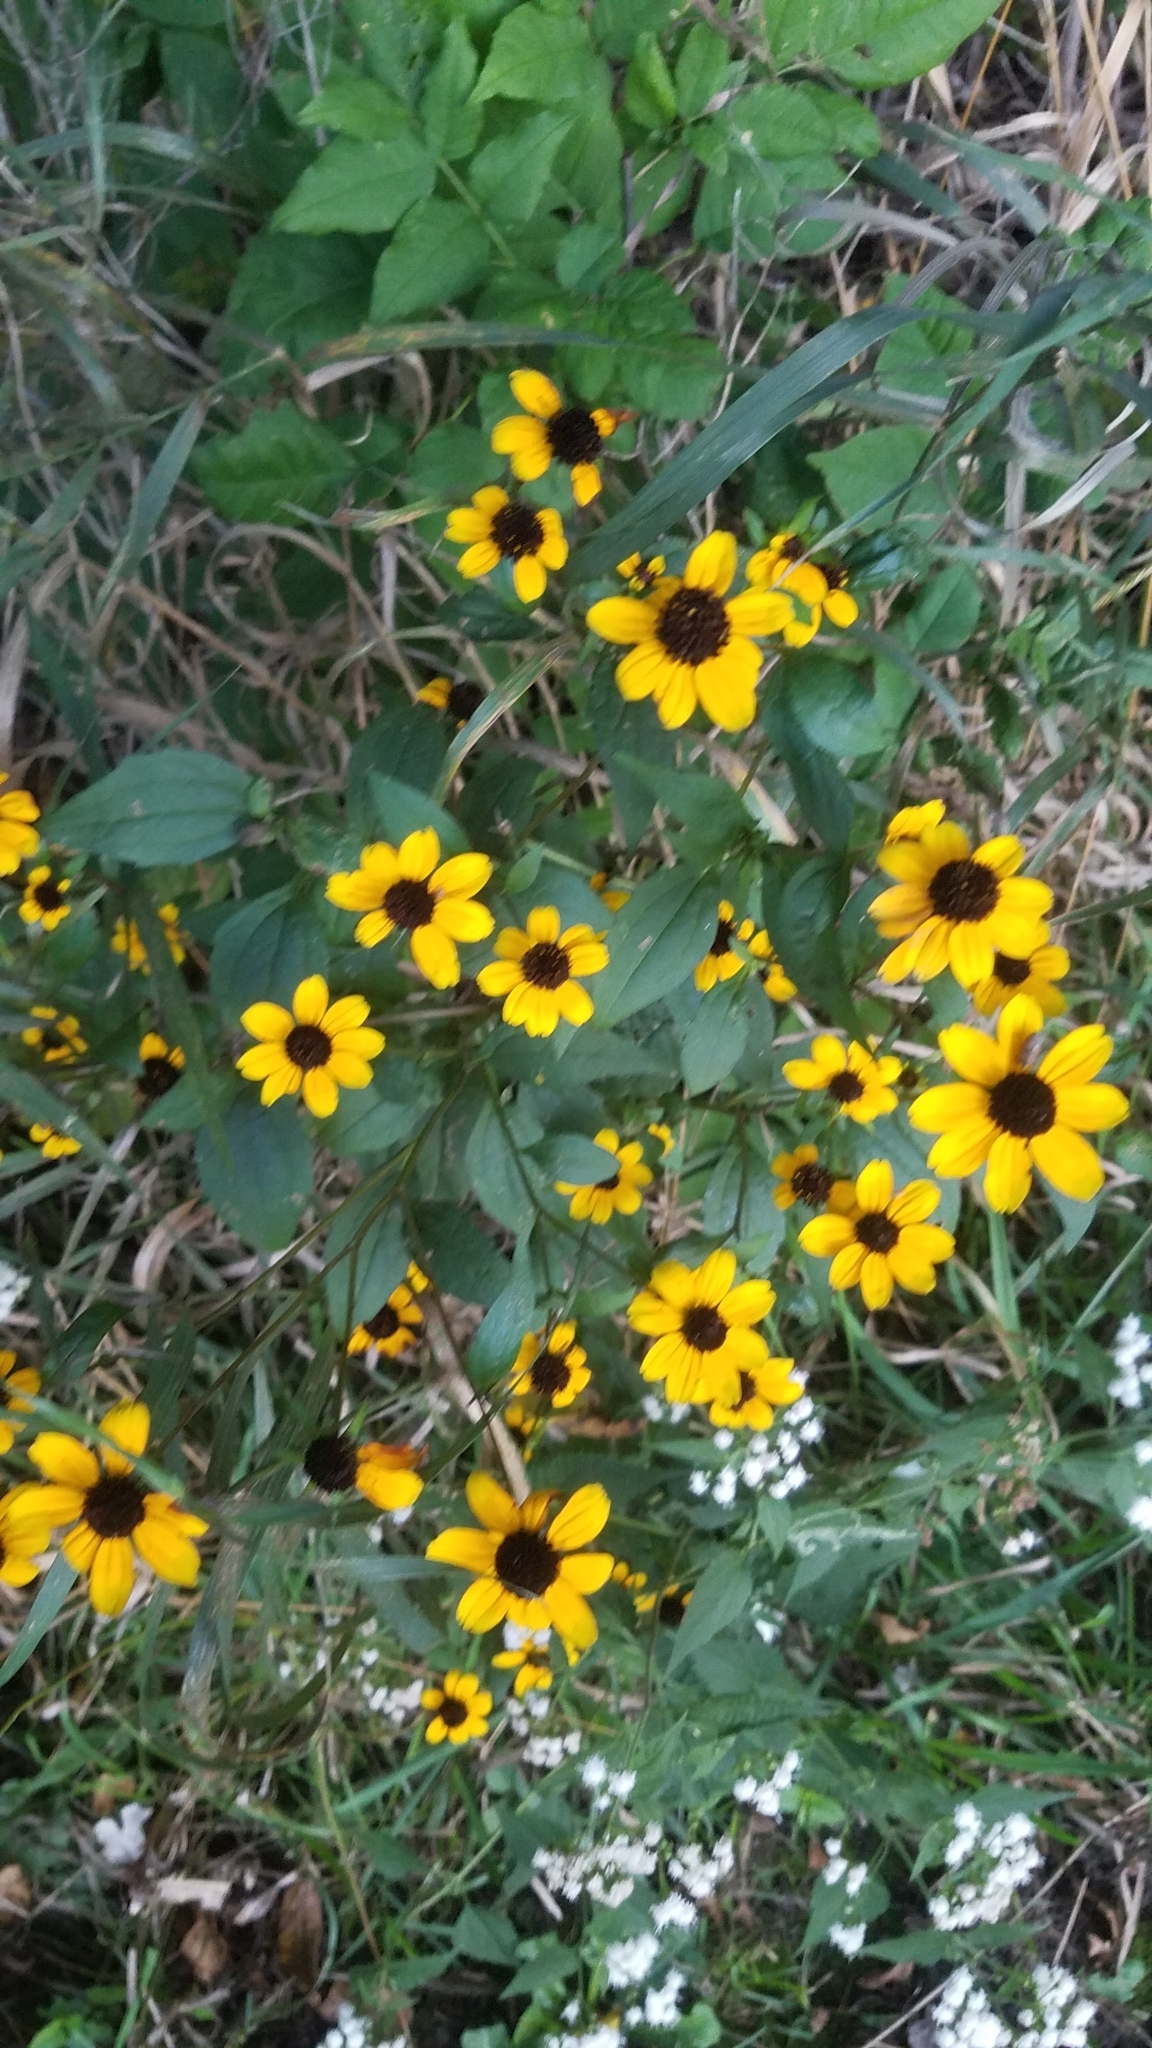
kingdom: Plantae
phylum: Tracheophyta
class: Magnoliopsida
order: Asterales
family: Asteraceae
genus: Rudbeckia
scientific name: Rudbeckia triloba
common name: Thin-leaved coneflower
